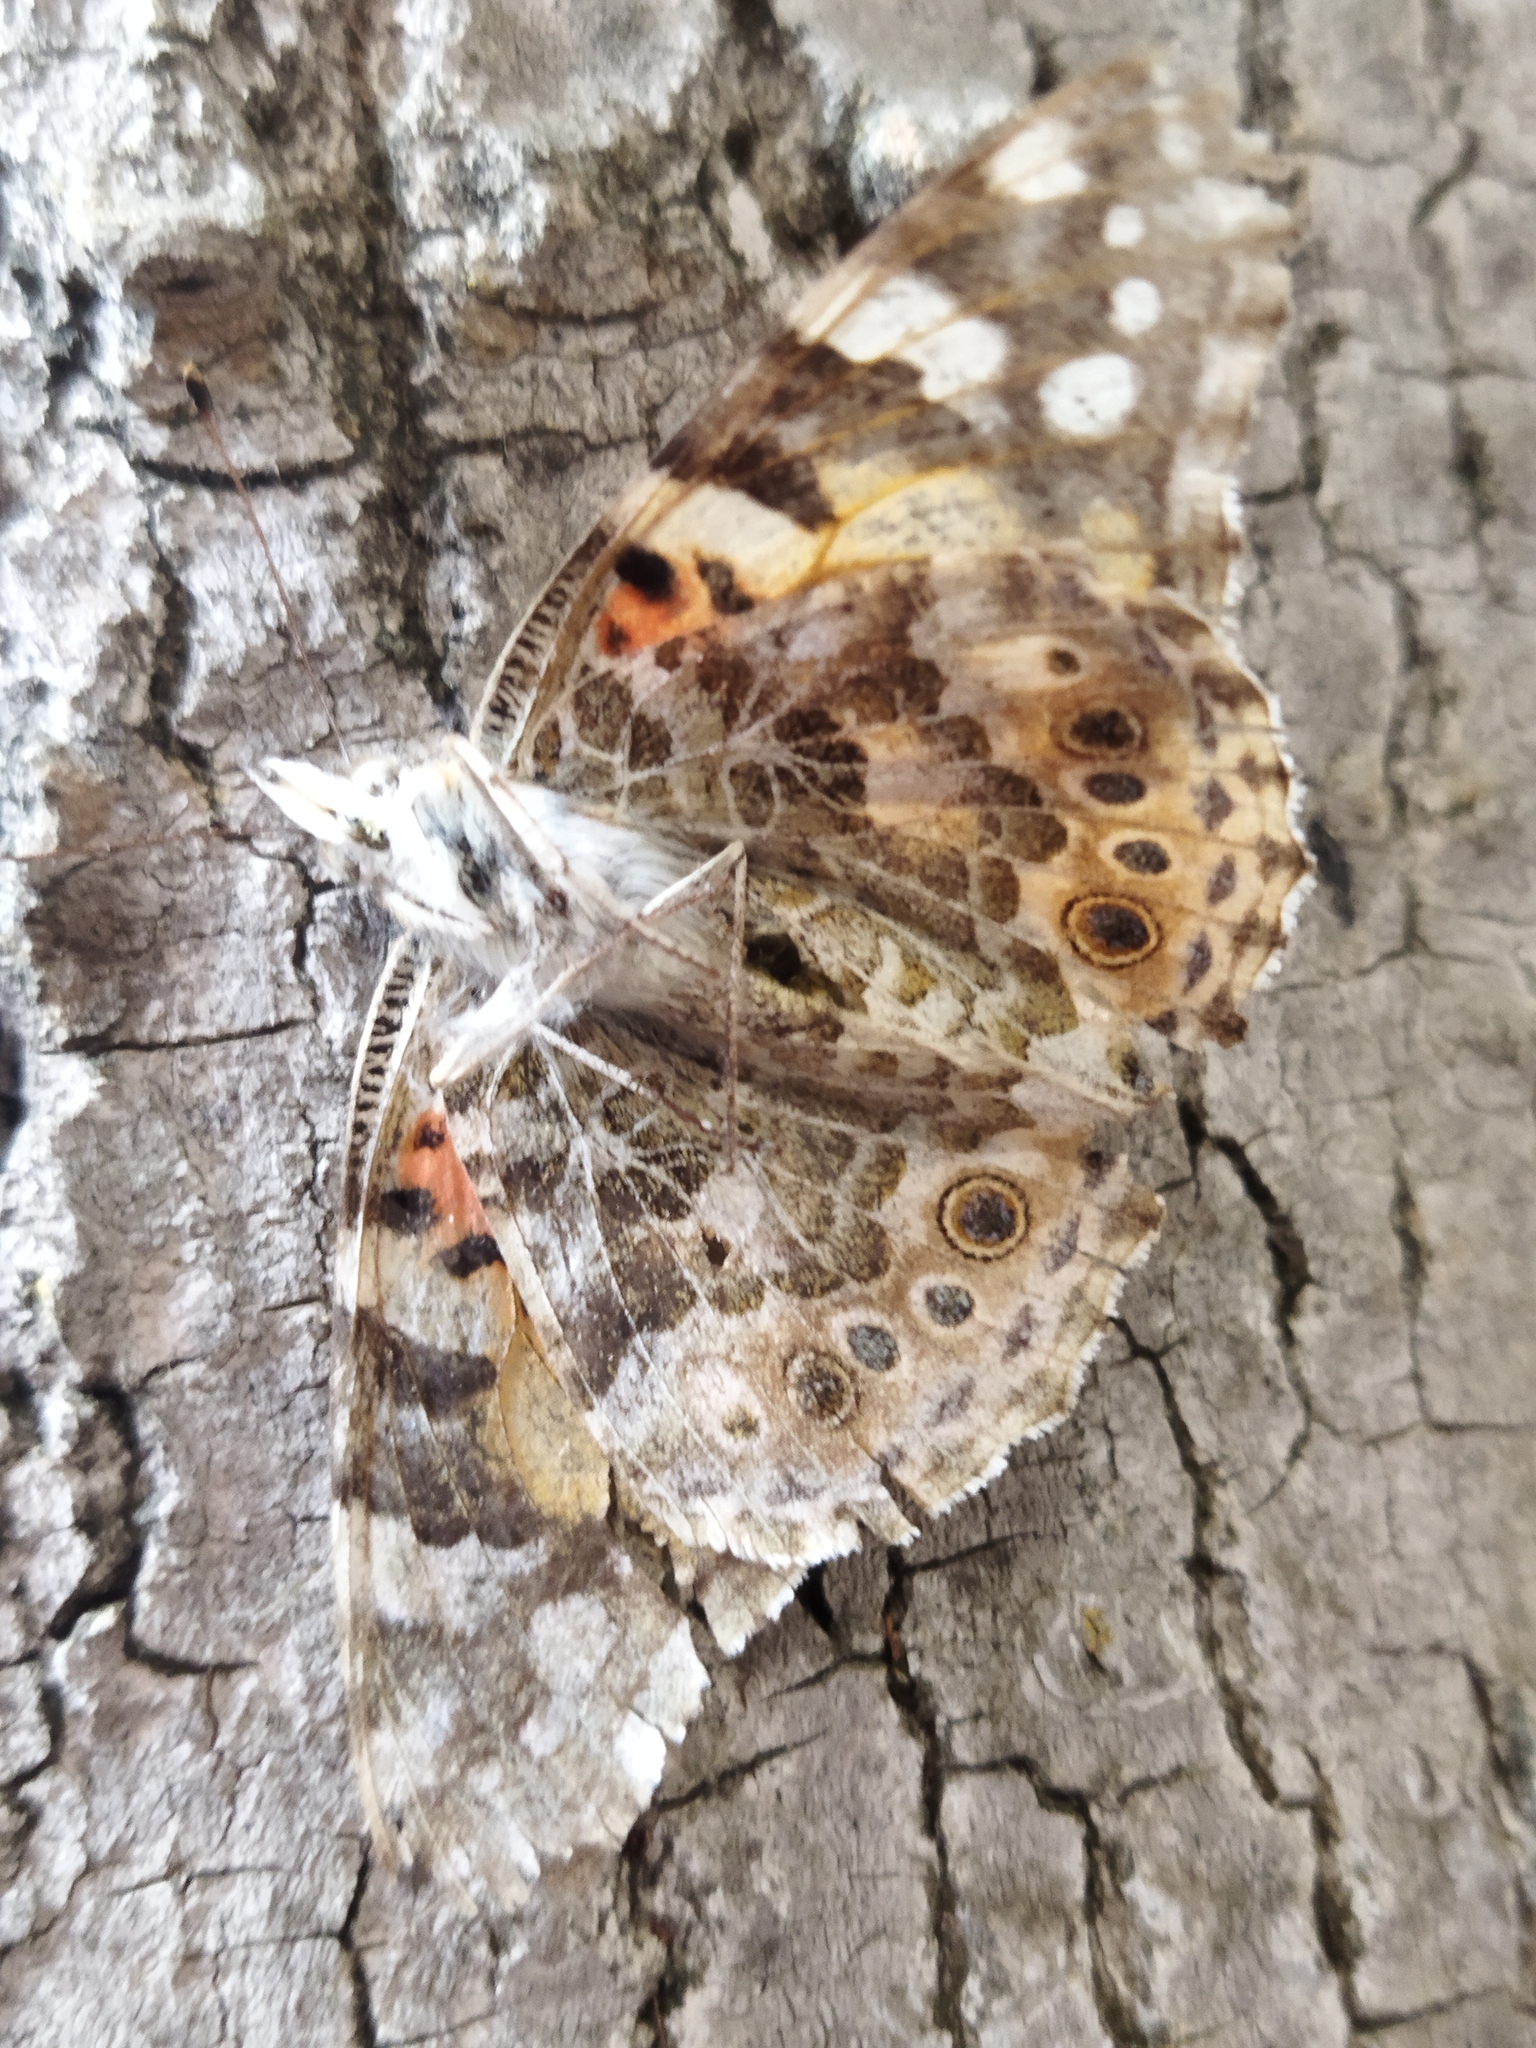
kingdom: Animalia
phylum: Arthropoda
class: Insecta
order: Lepidoptera
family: Nymphalidae
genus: Vanessa
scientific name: Vanessa cardui
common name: Painted lady
